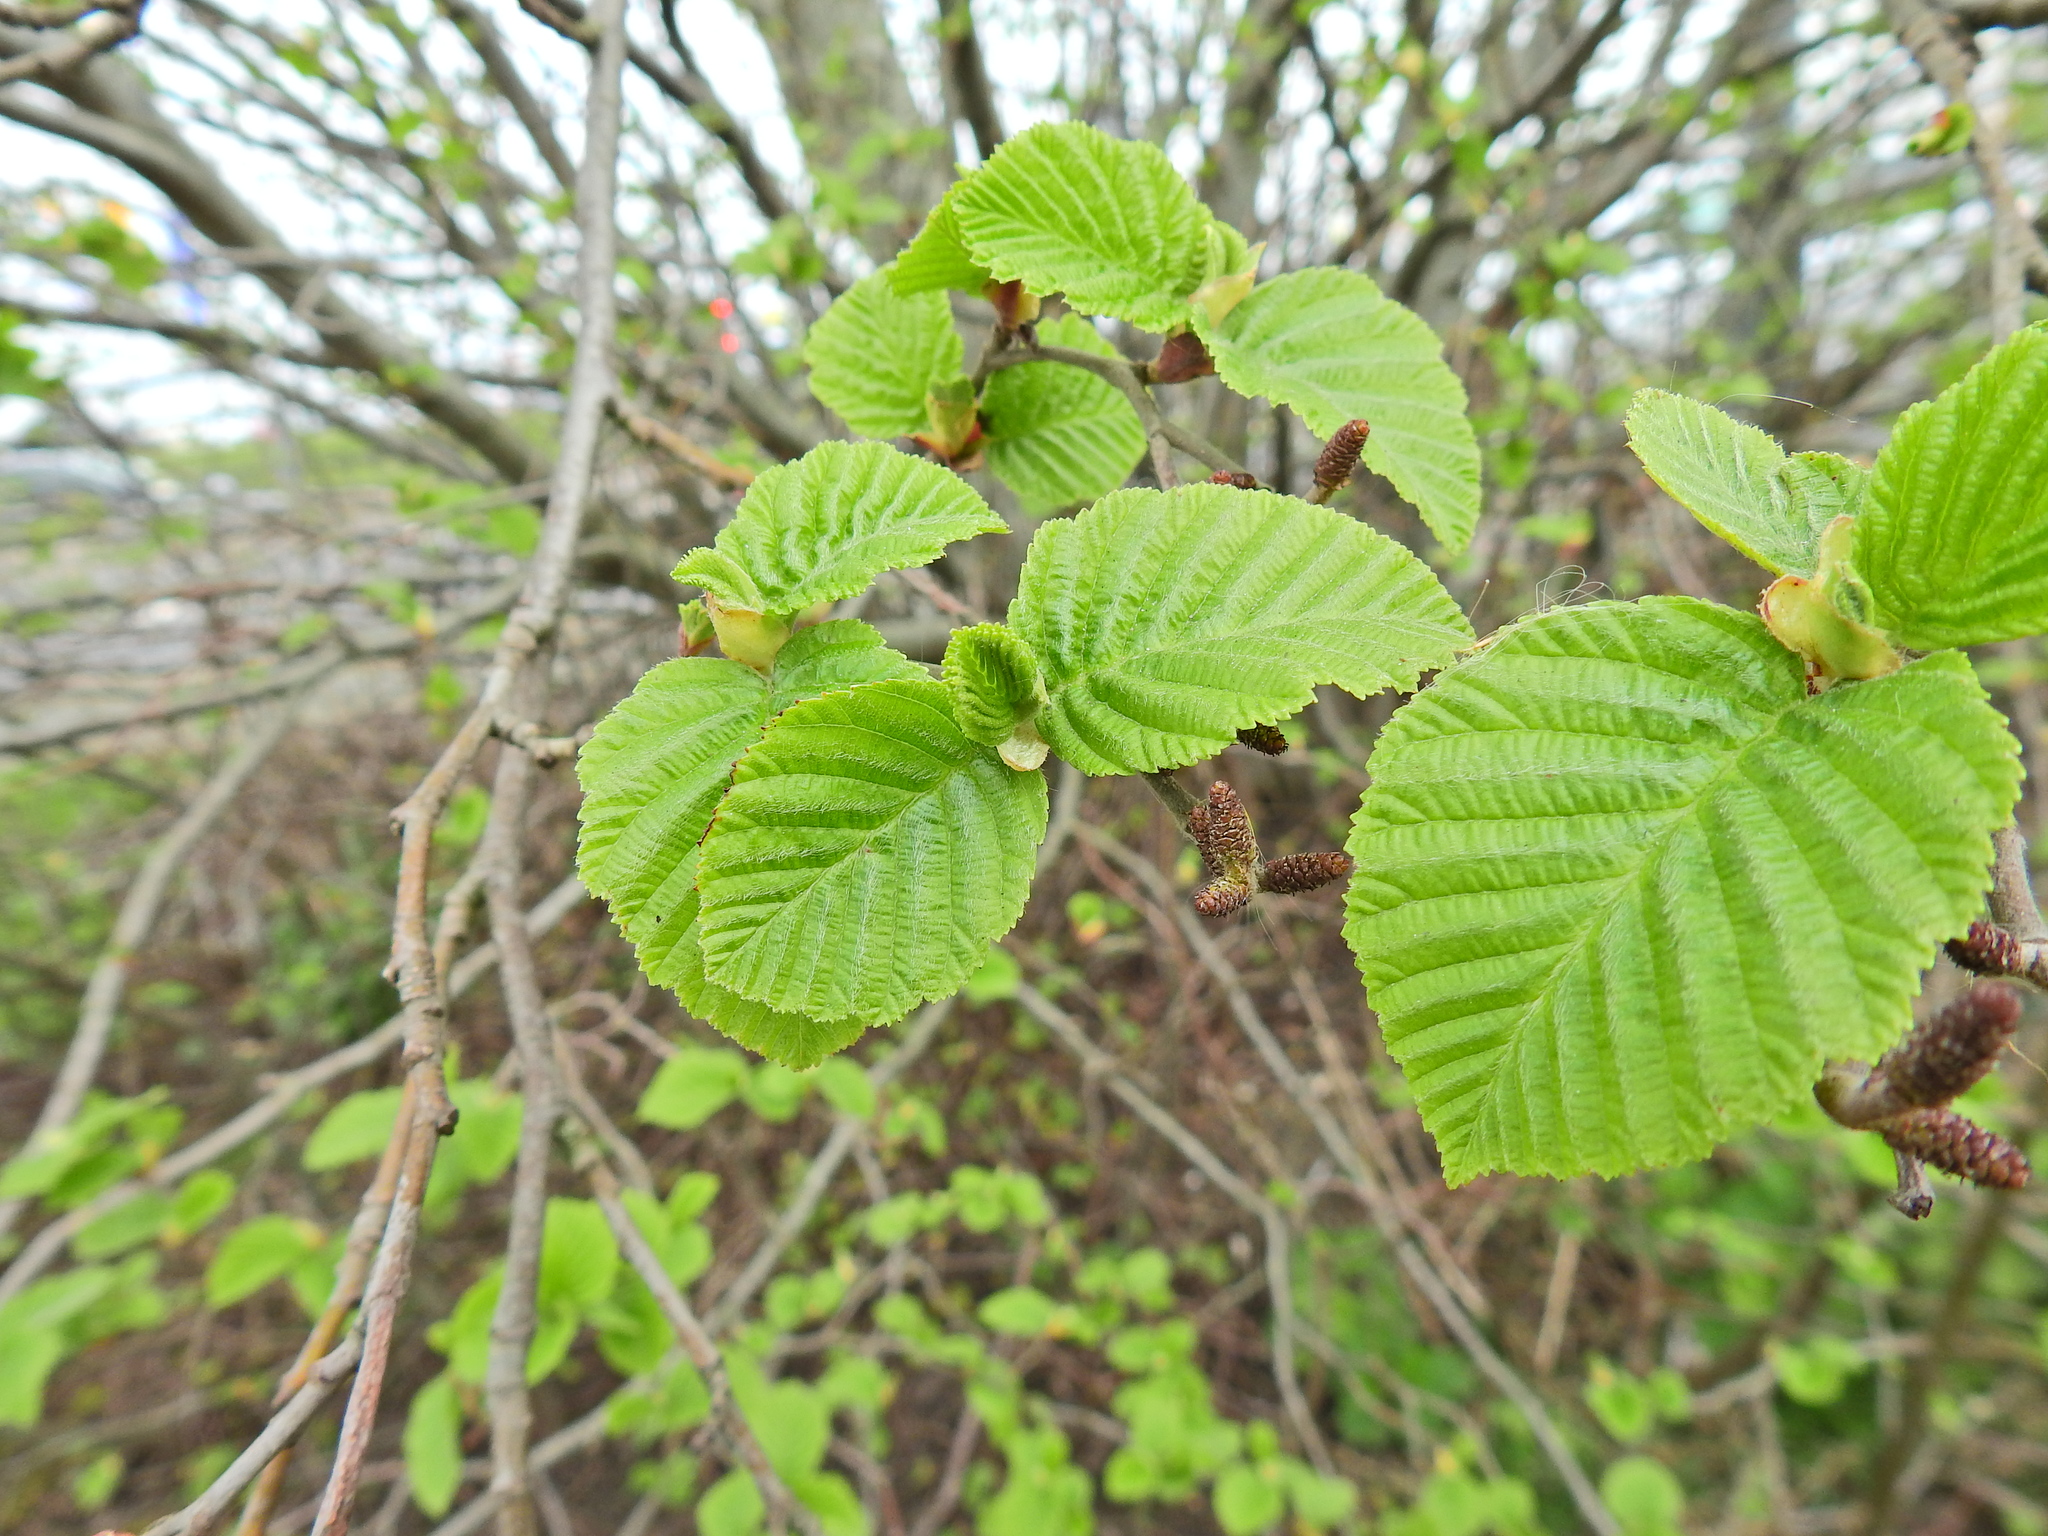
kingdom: Plantae
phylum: Tracheophyta
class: Magnoliopsida
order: Fagales
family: Betulaceae
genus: Alnus
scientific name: Alnus incana
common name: Grey alder
